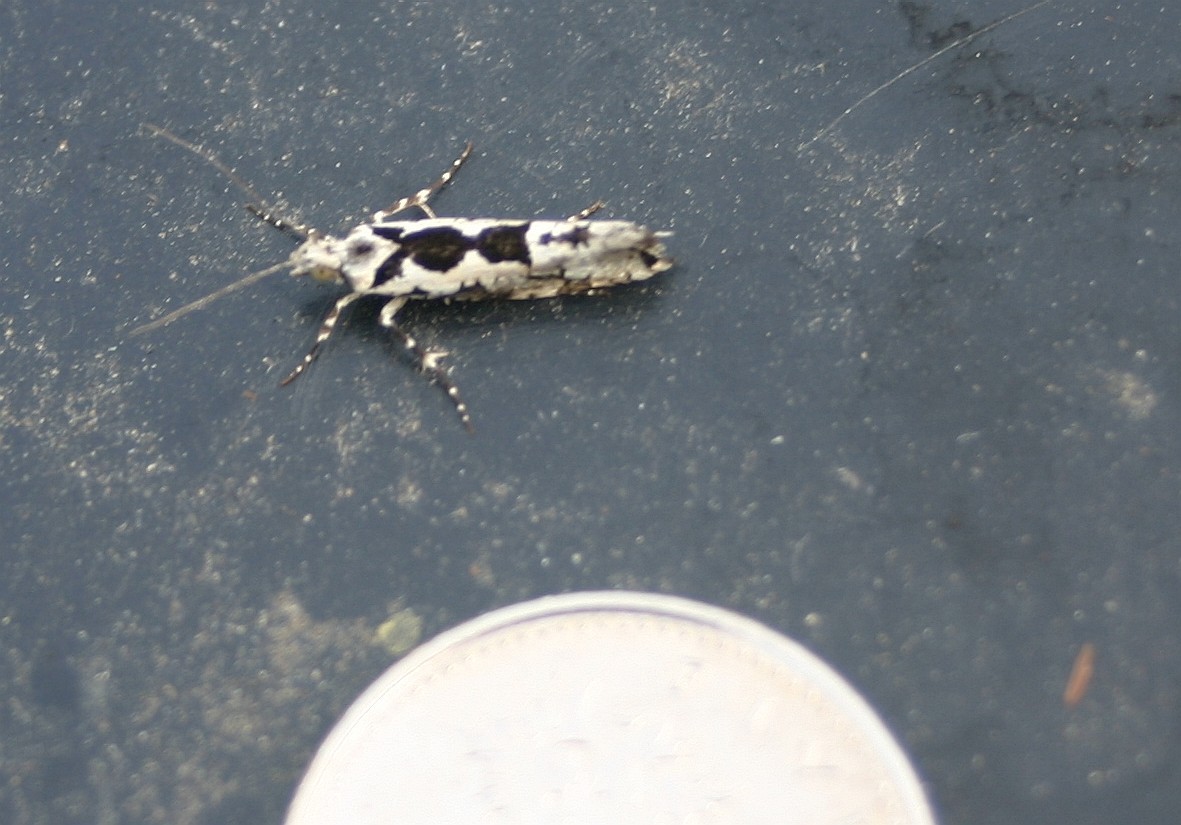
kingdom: Animalia
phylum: Arthropoda
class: Insecta
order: Lepidoptera
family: Plutellidae
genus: Ypsolophus
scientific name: Ypsolophus sequella
